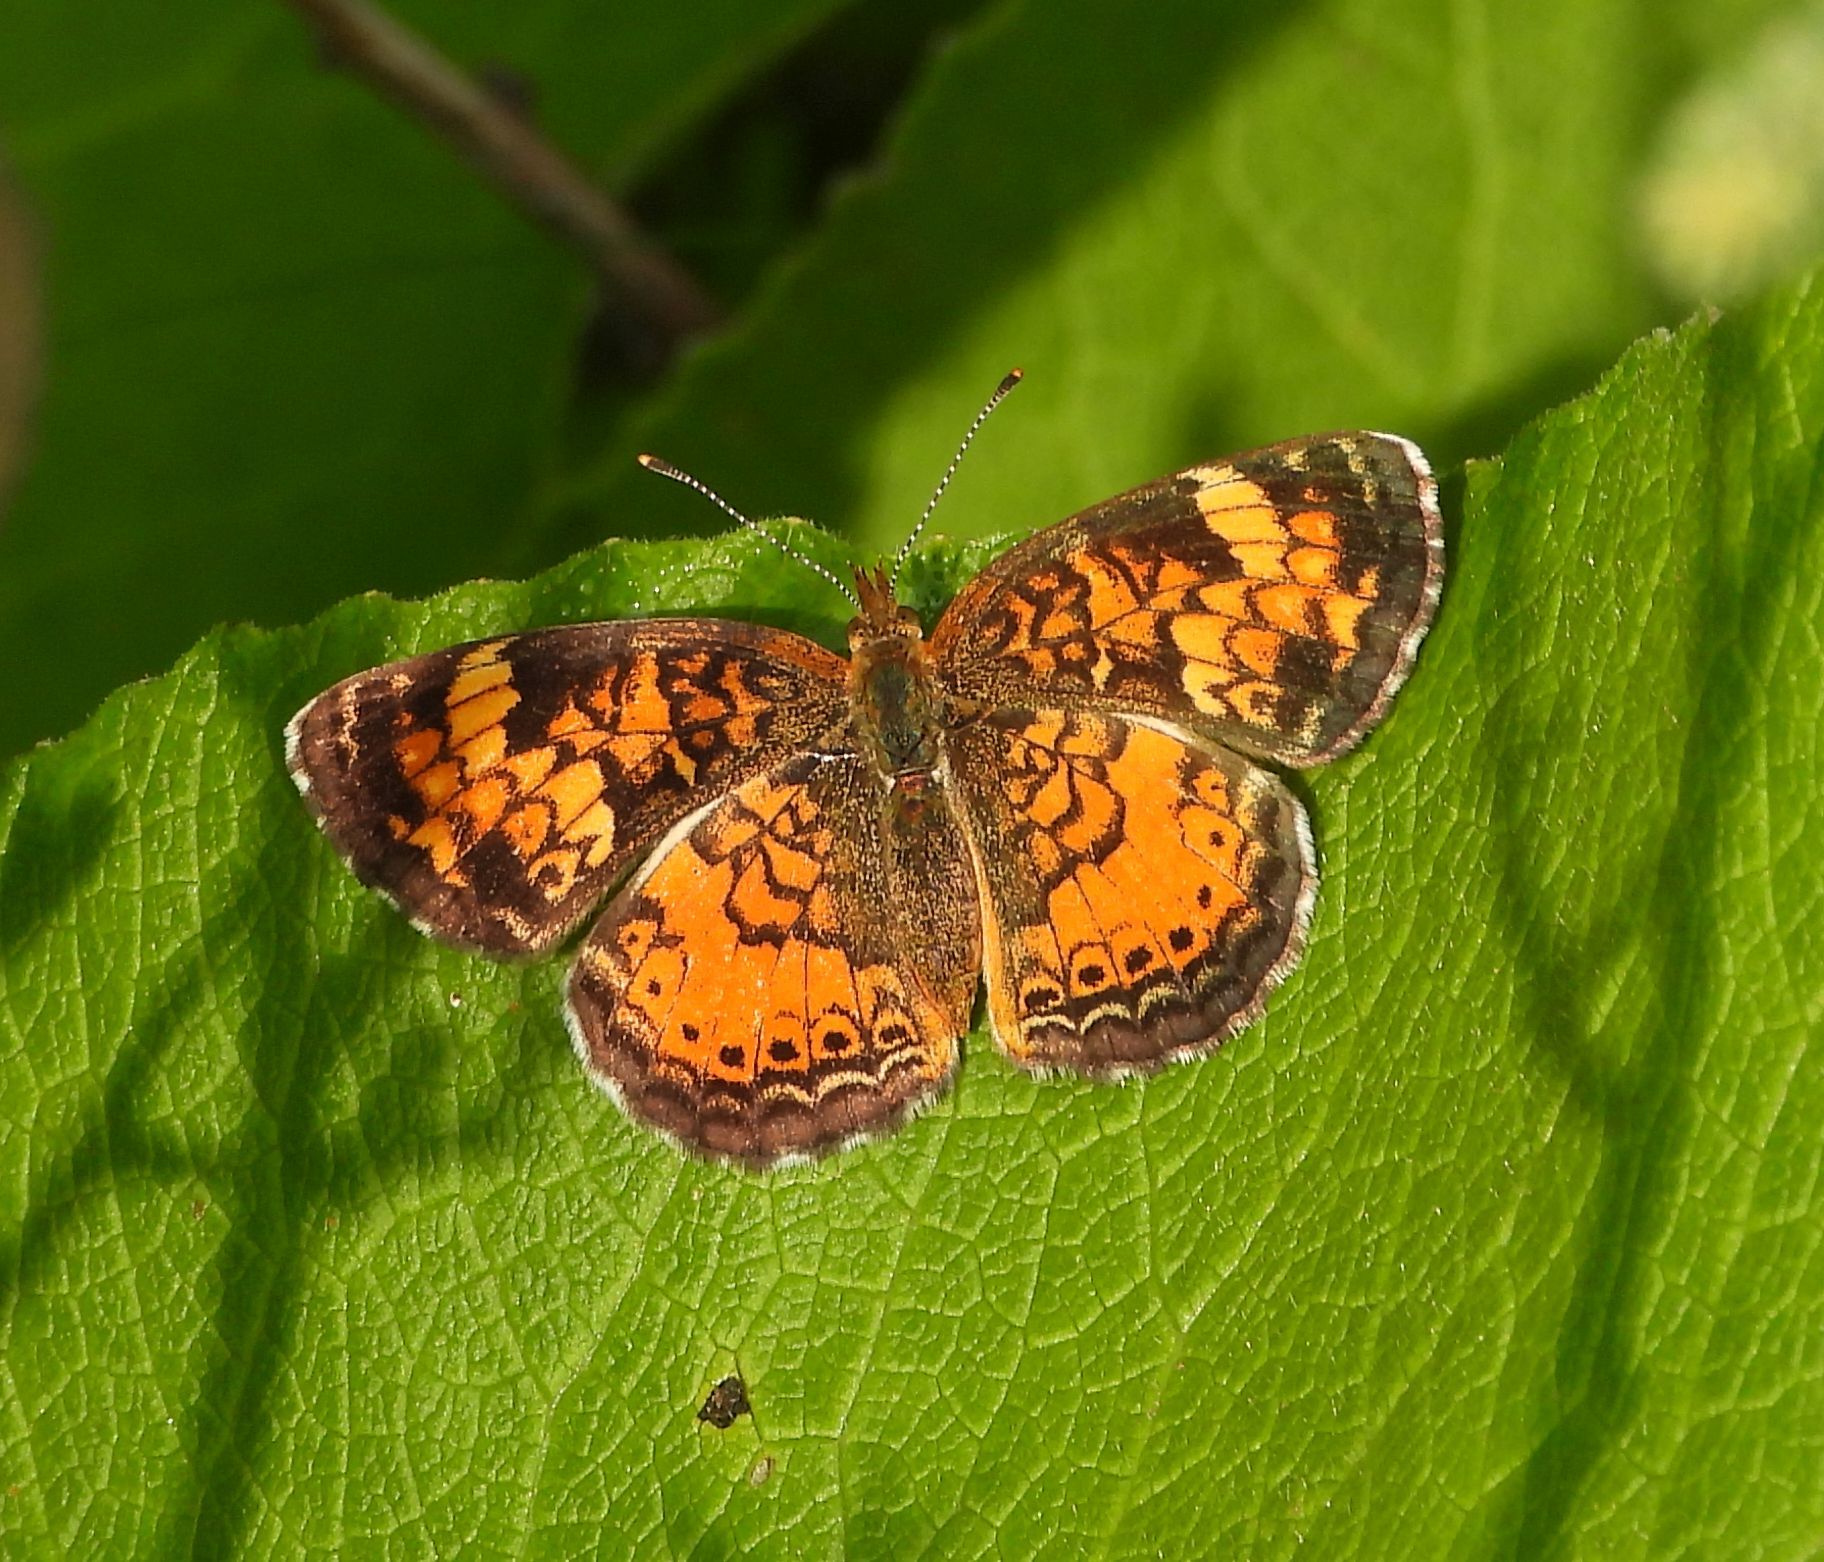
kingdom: Animalia
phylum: Arthropoda
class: Insecta
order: Lepidoptera
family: Nymphalidae
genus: Phyciodes
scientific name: Phyciodes tharos
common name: Pearl crescent
